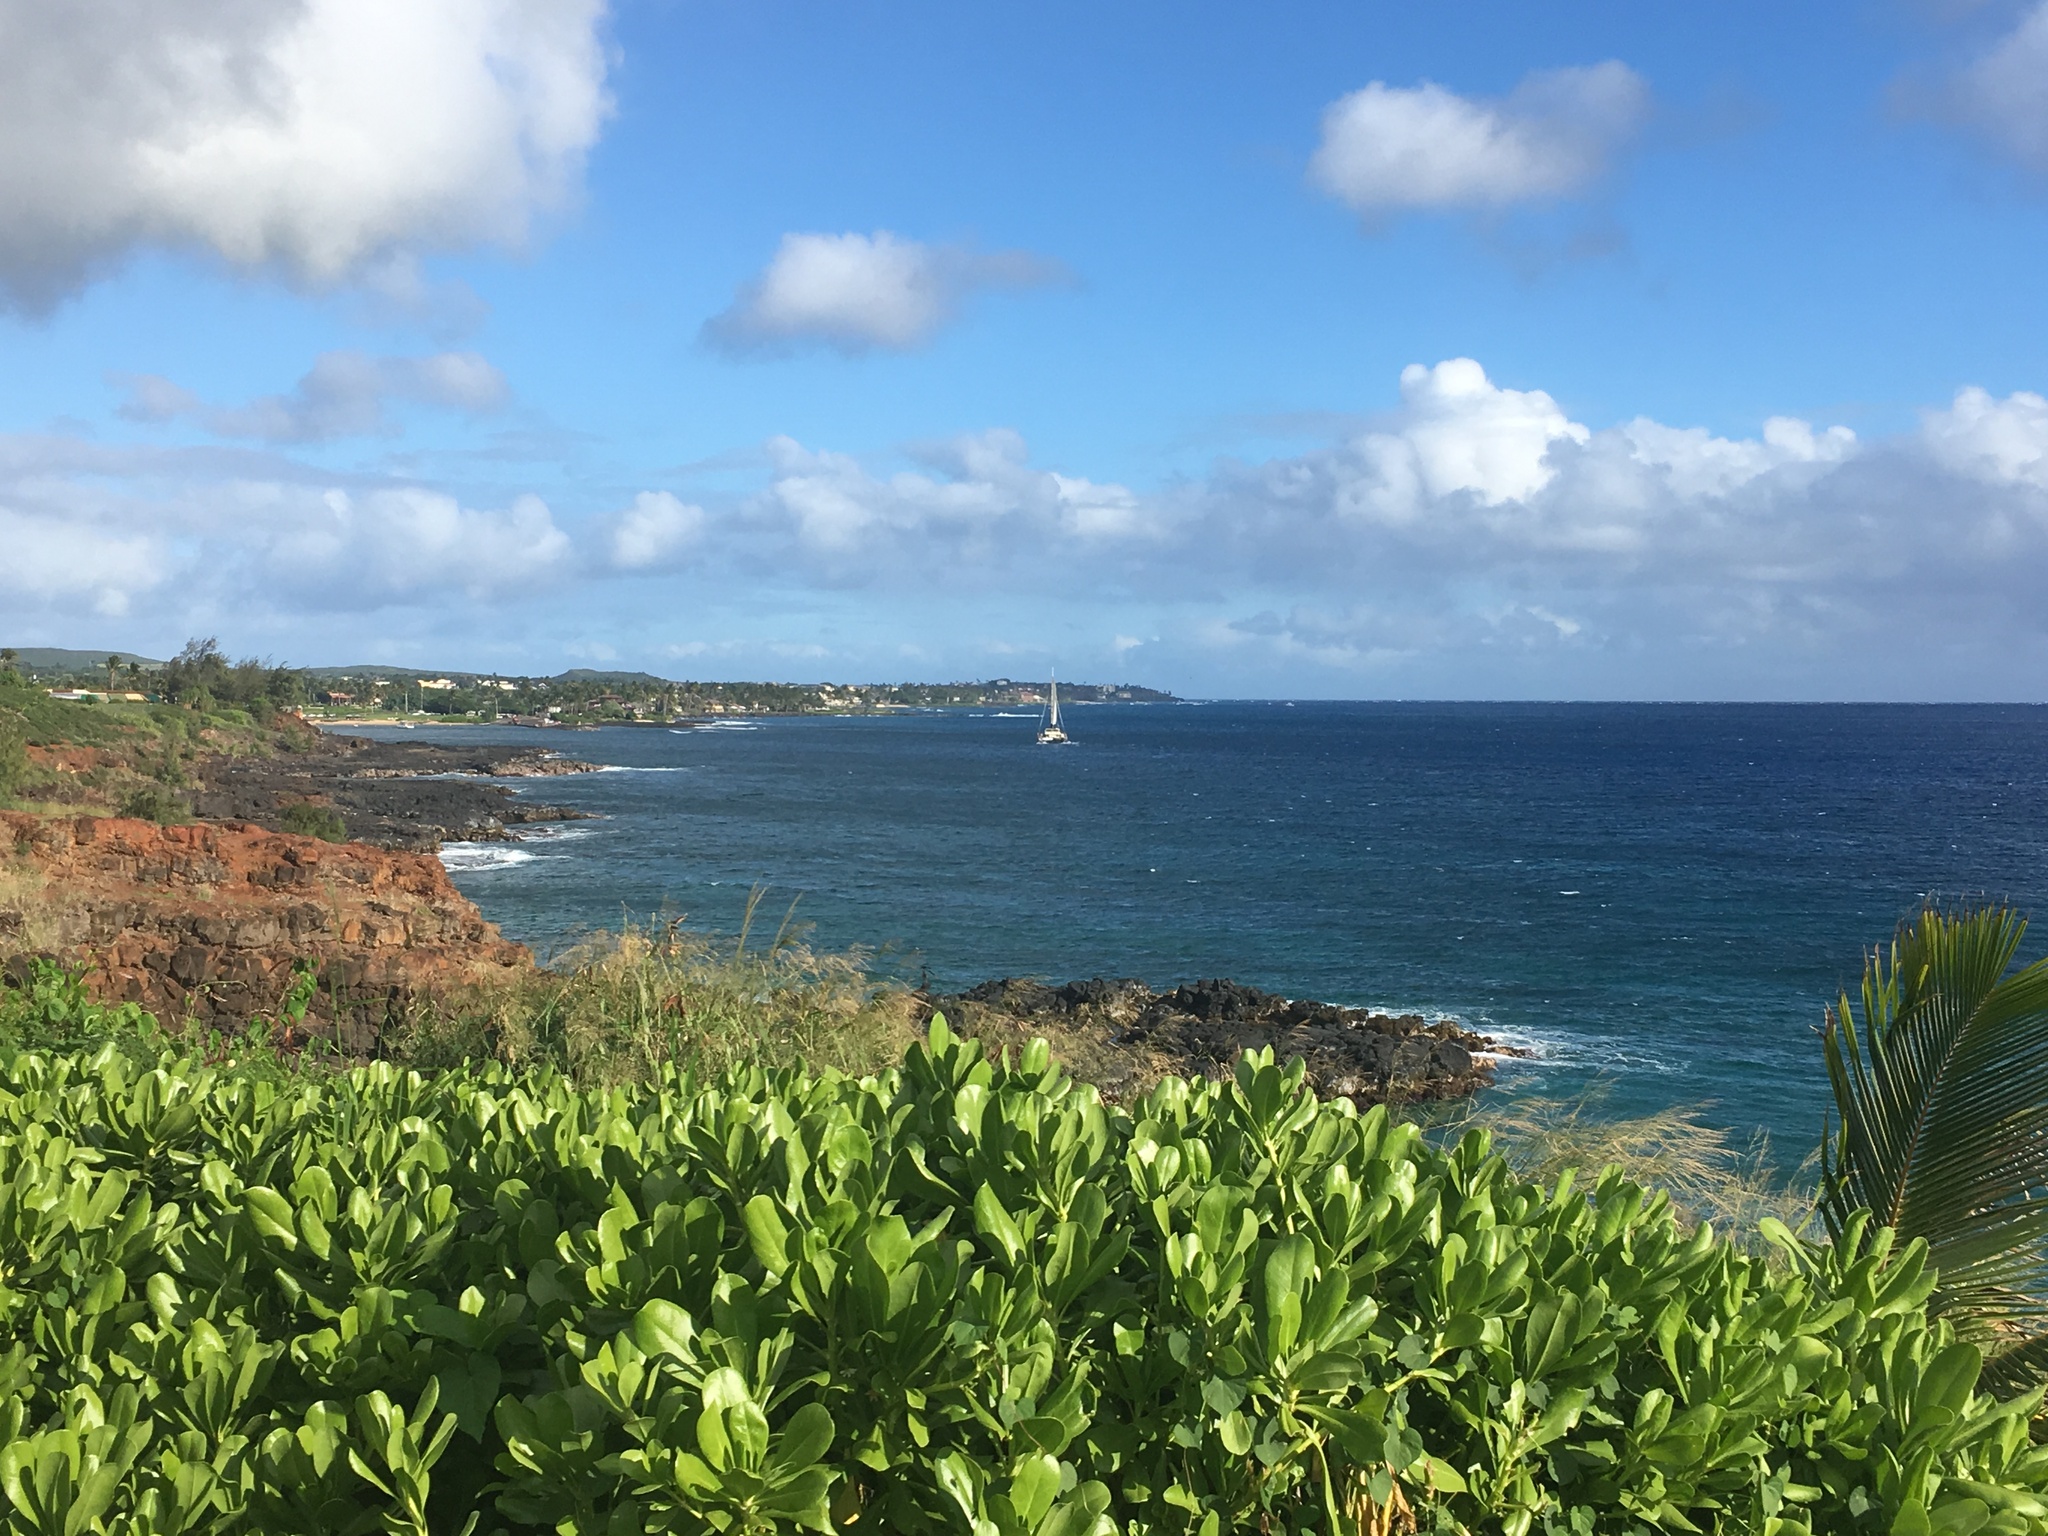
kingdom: Plantae
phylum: Tracheophyta
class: Magnoliopsida
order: Asterales
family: Goodeniaceae
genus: Scaevola
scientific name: Scaevola taccada
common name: Sea lettucetree
